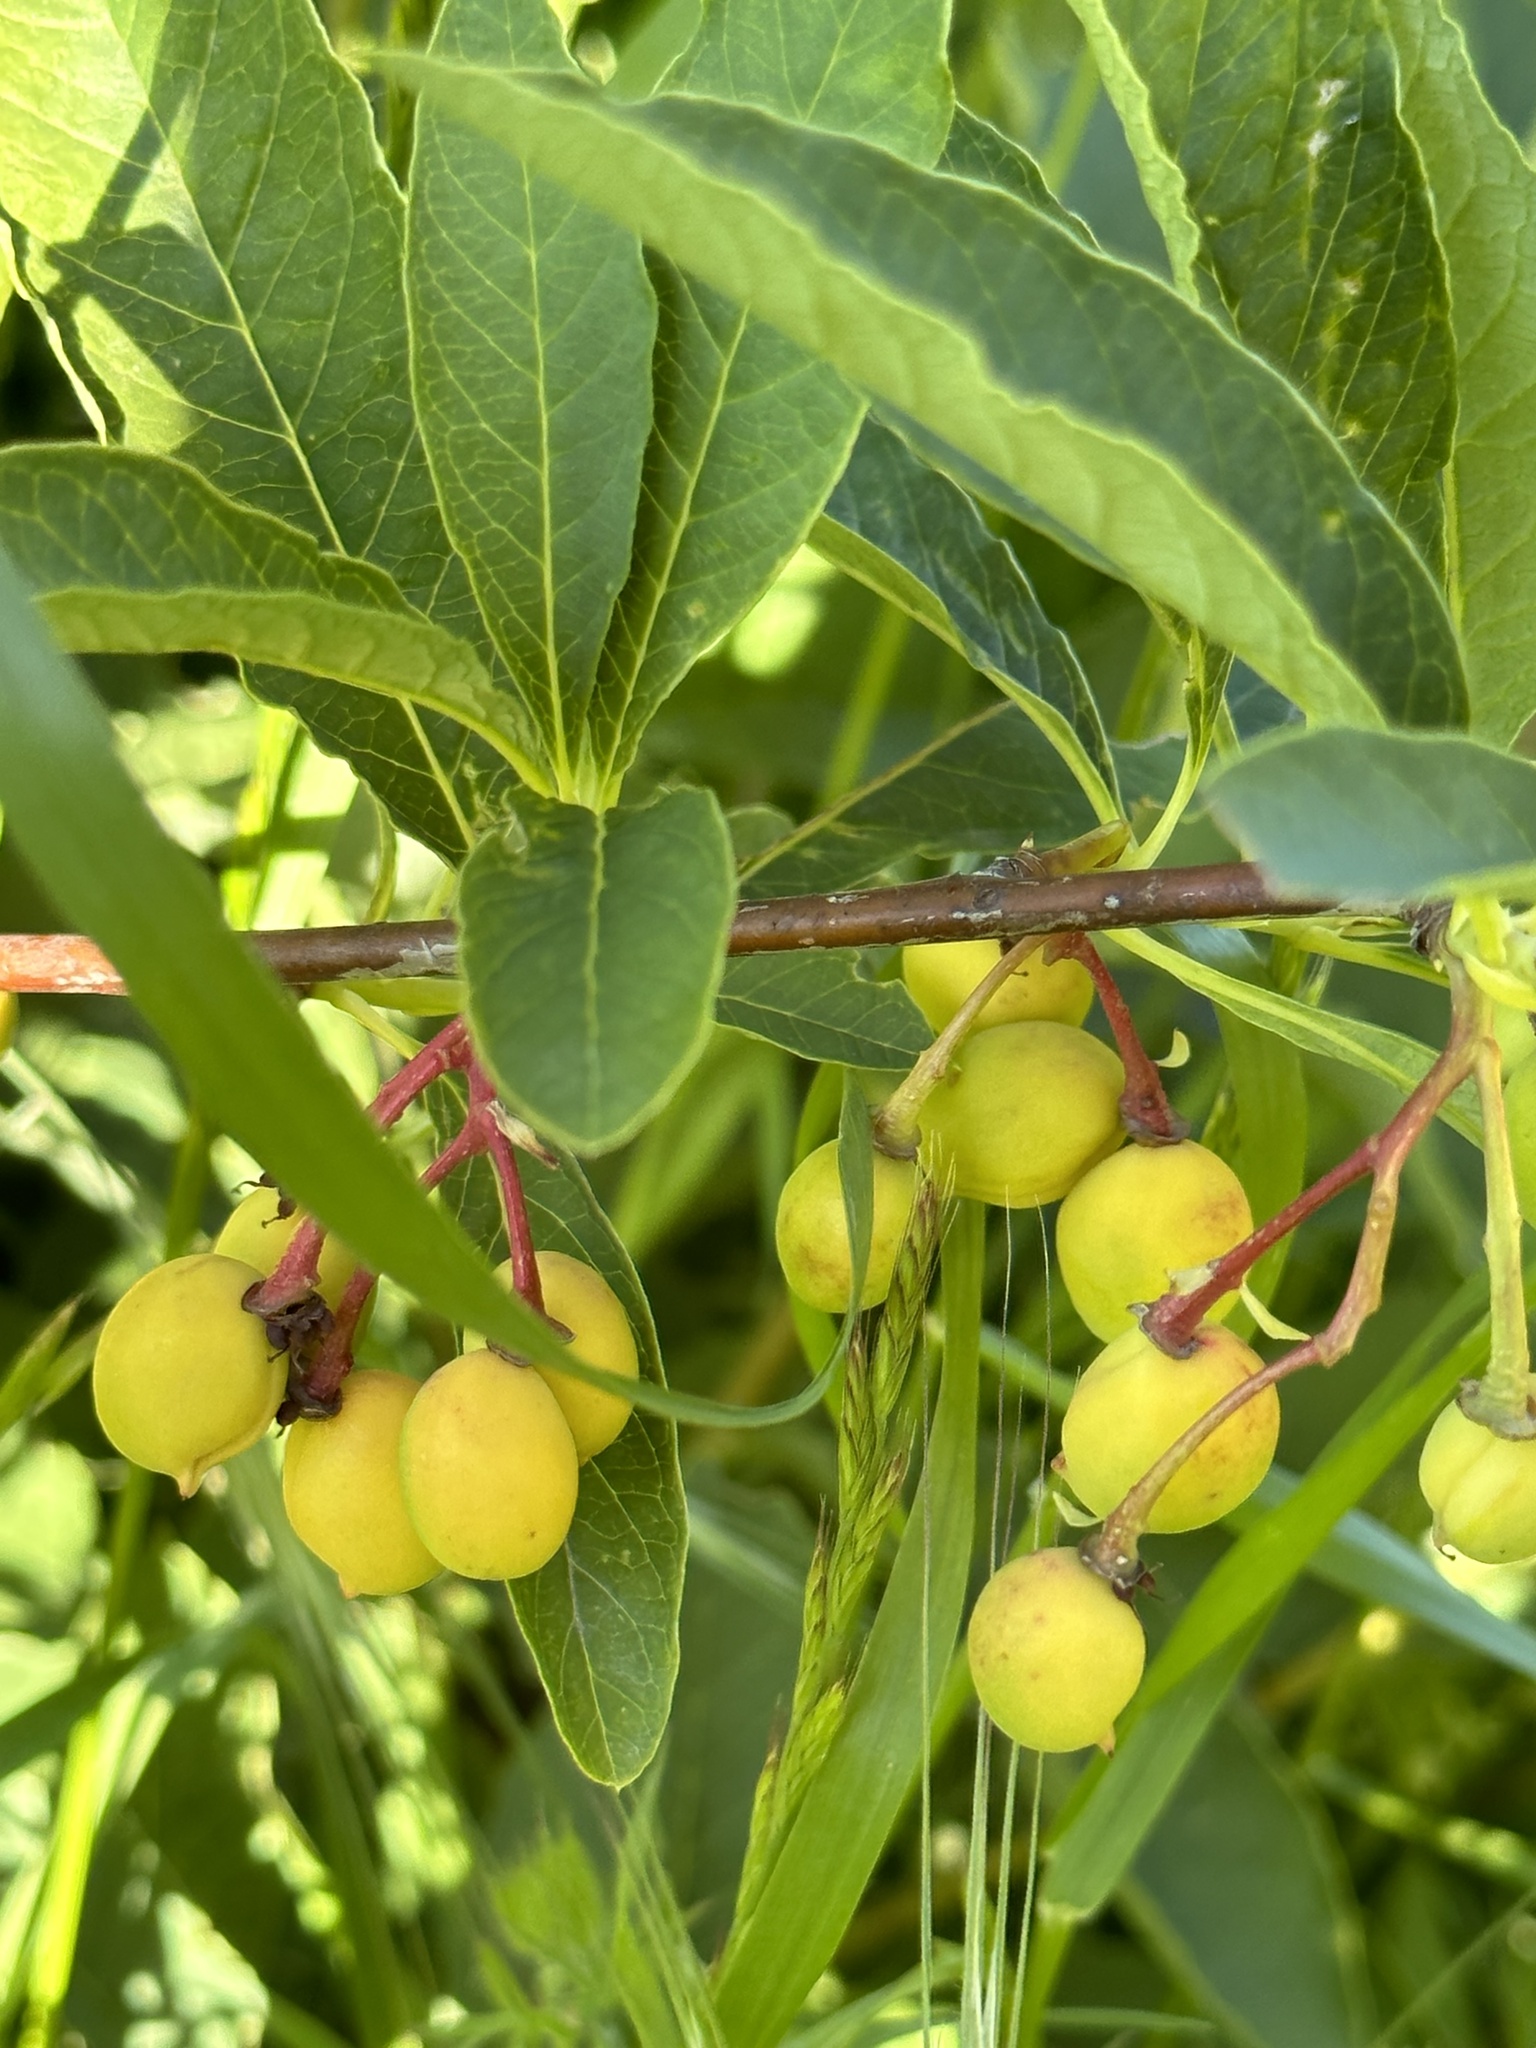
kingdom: Plantae
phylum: Tracheophyta
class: Magnoliopsida
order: Rosales
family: Rosaceae
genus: Oemleria
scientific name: Oemleria cerasiformis
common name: Osoberry
